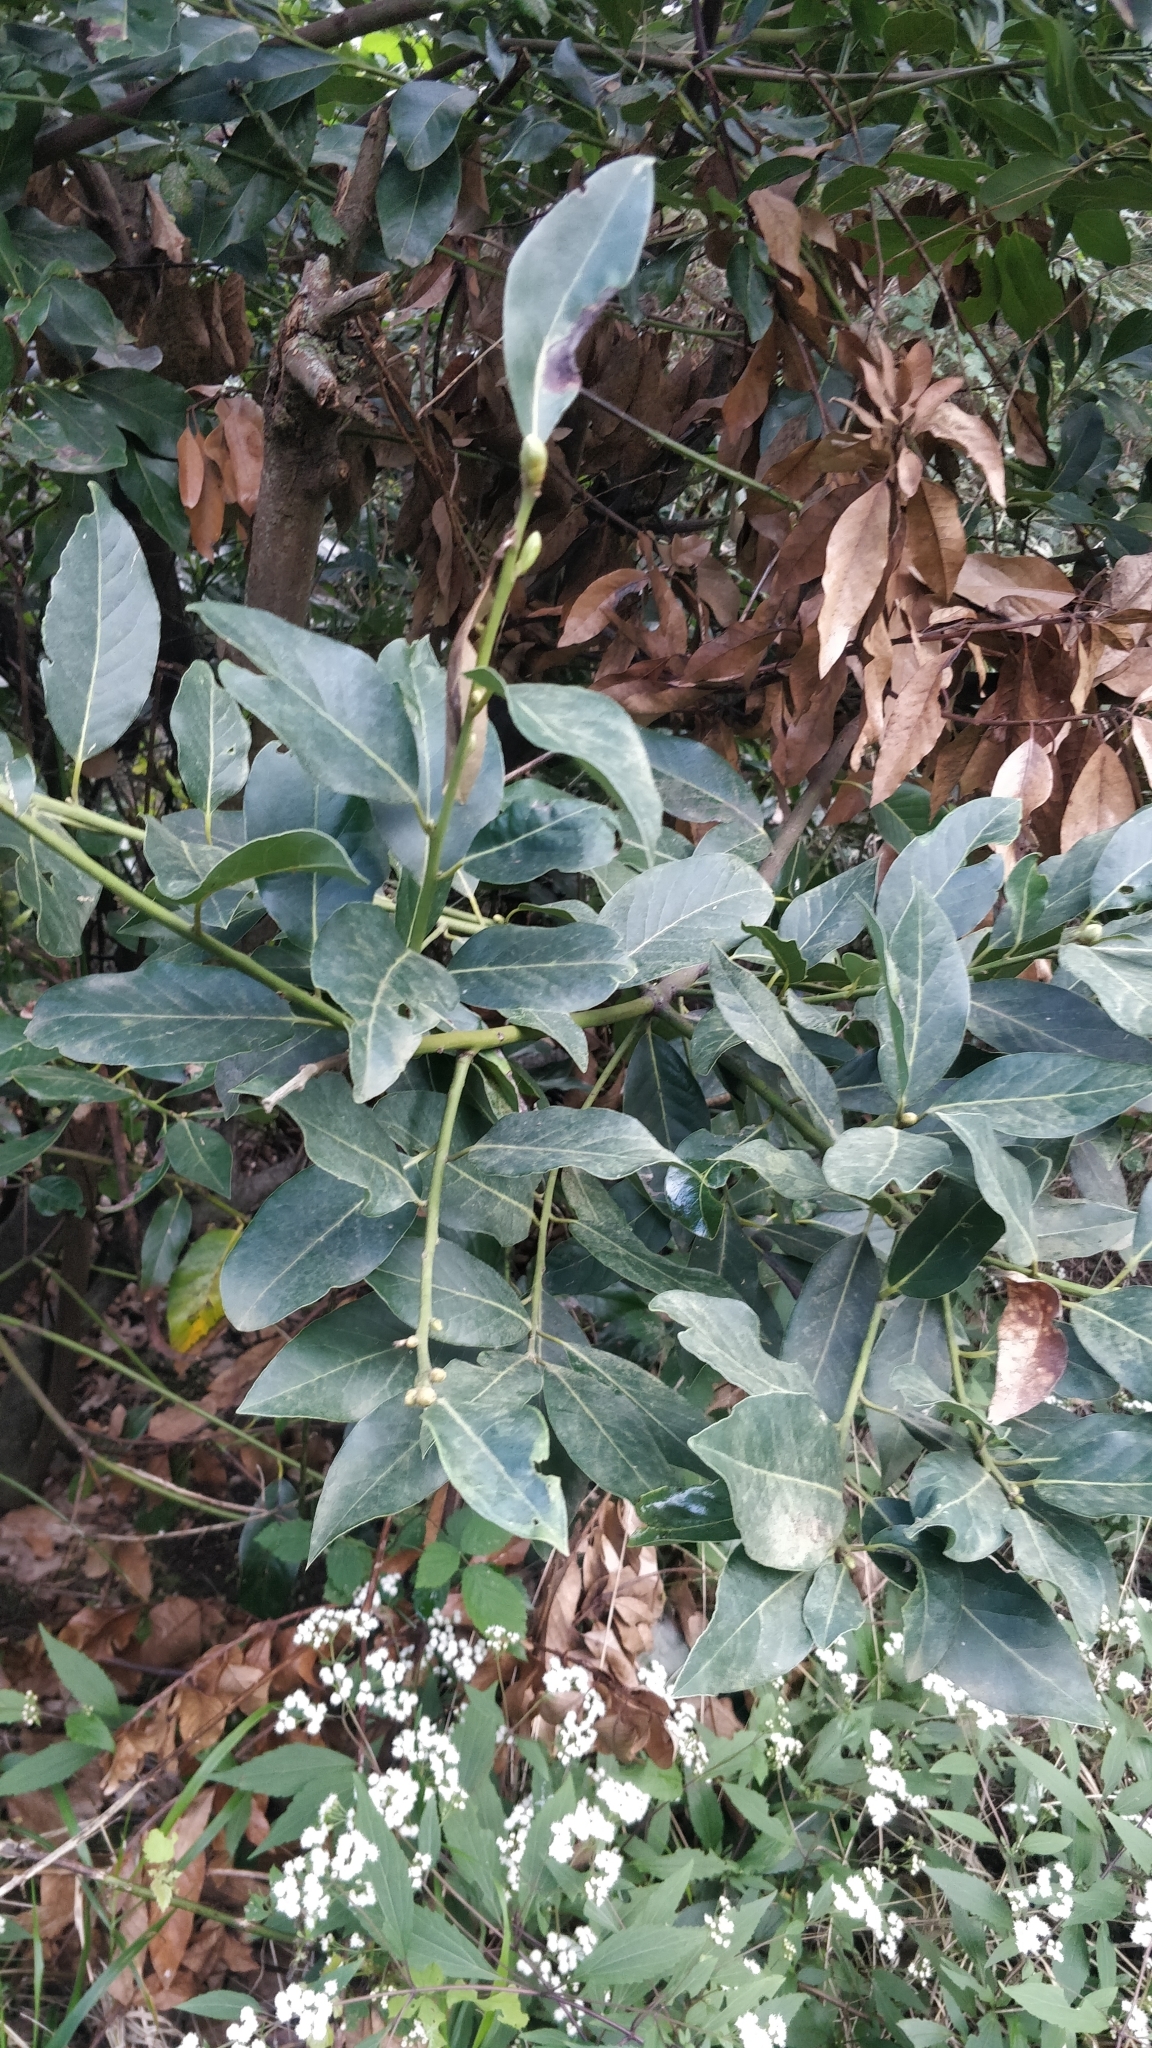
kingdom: Plantae
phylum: Tracheophyta
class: Magnoliopsida
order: Laurales
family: Lauraceae
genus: Laurus
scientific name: Laurus novocanariensis
